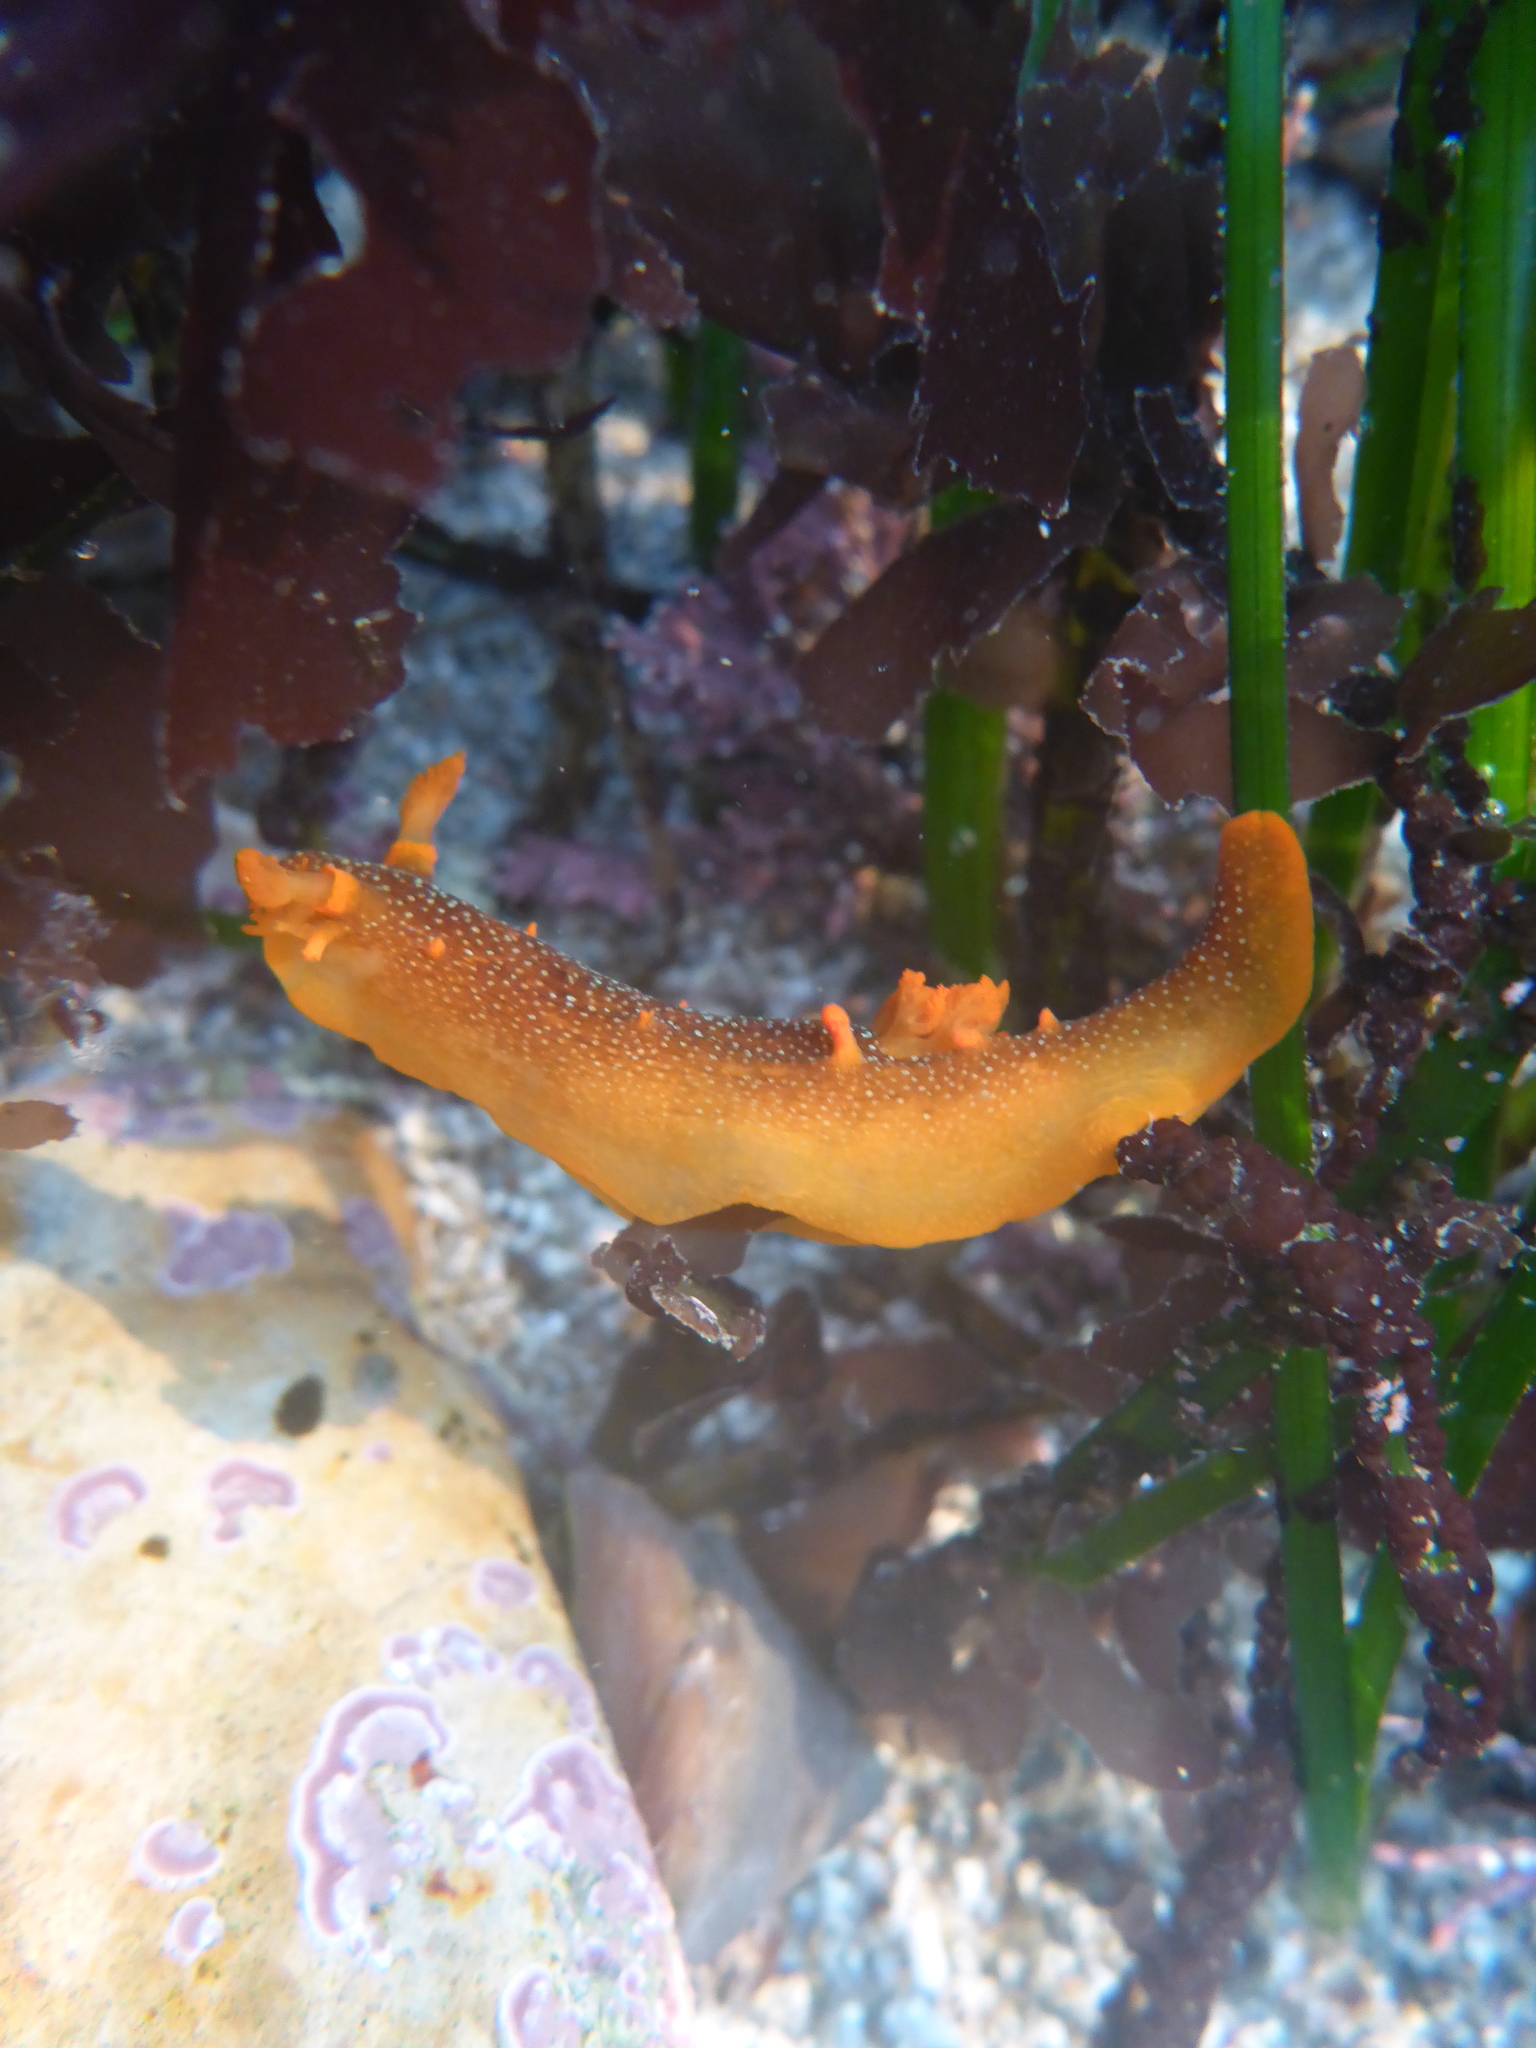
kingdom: Animalia
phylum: Mollusca
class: Gastropoda
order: Nudibranchia
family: Polyceridae
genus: Triopha
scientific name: Triopha maculata
